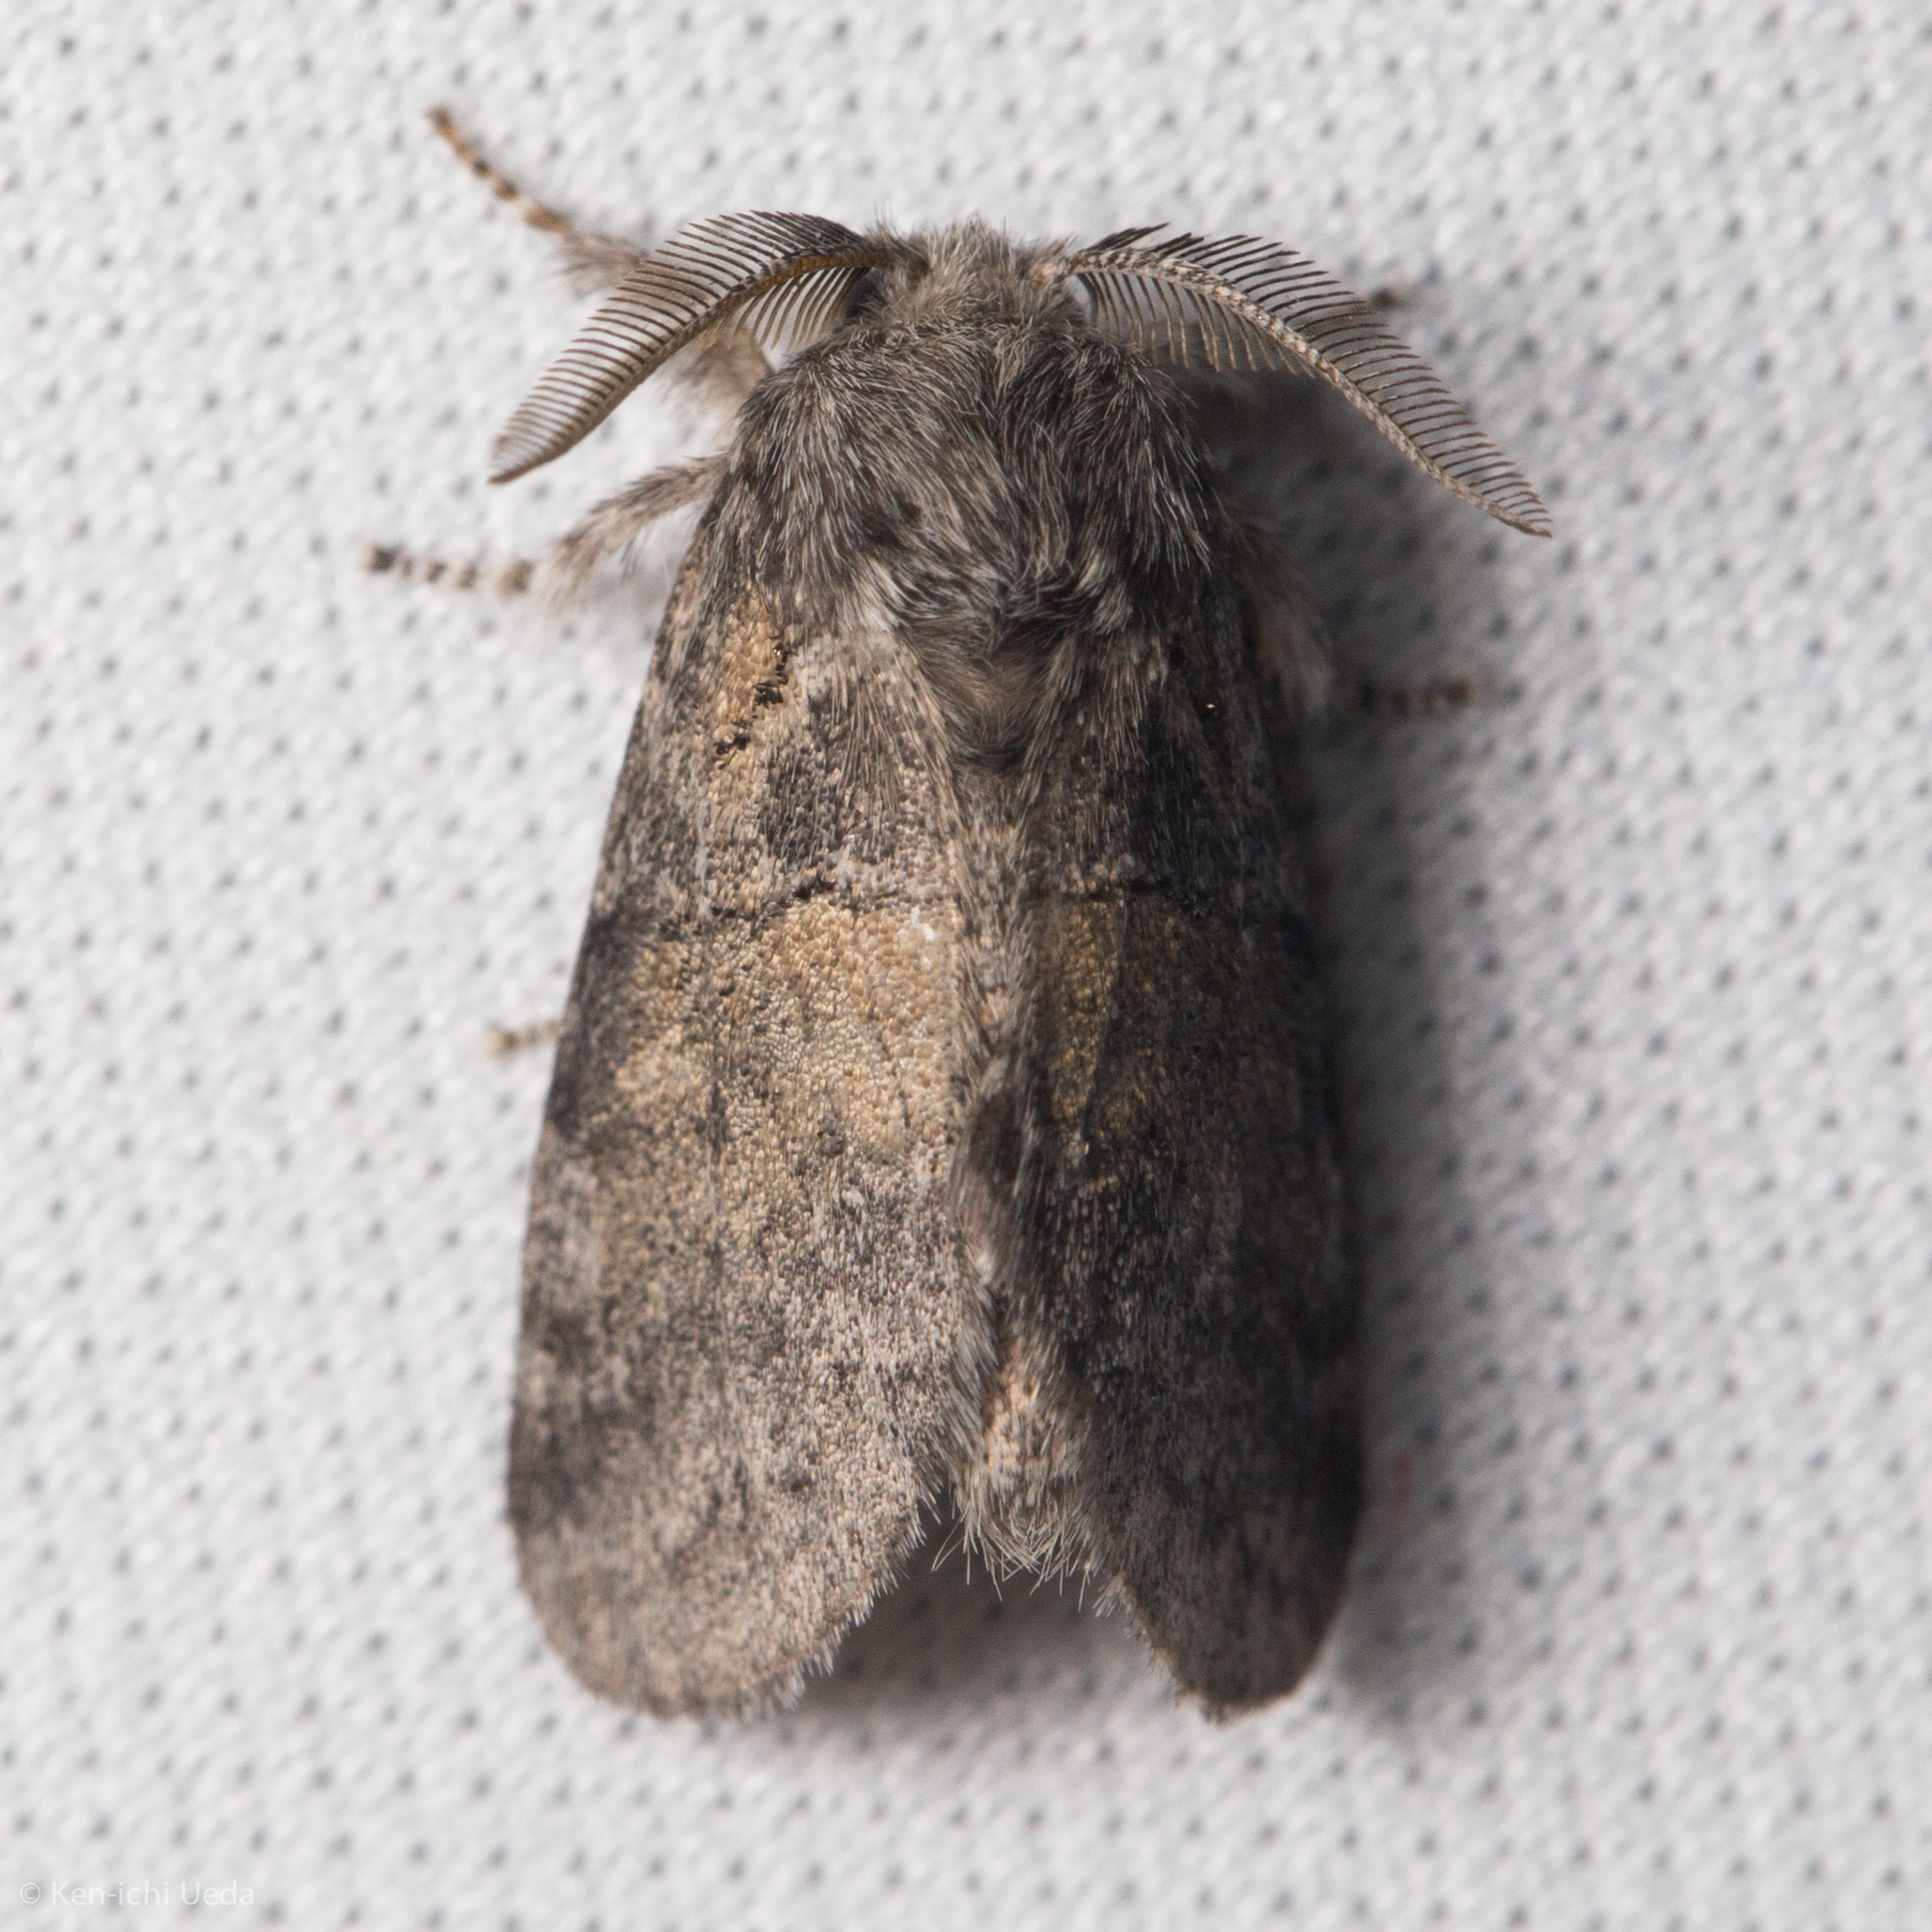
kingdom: Animalia
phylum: Arthropoda
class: Insecta
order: Lepidoptera
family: Notodontidae
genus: Gluphisia
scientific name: Gluphisia septentrionis
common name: Common gluphisia
